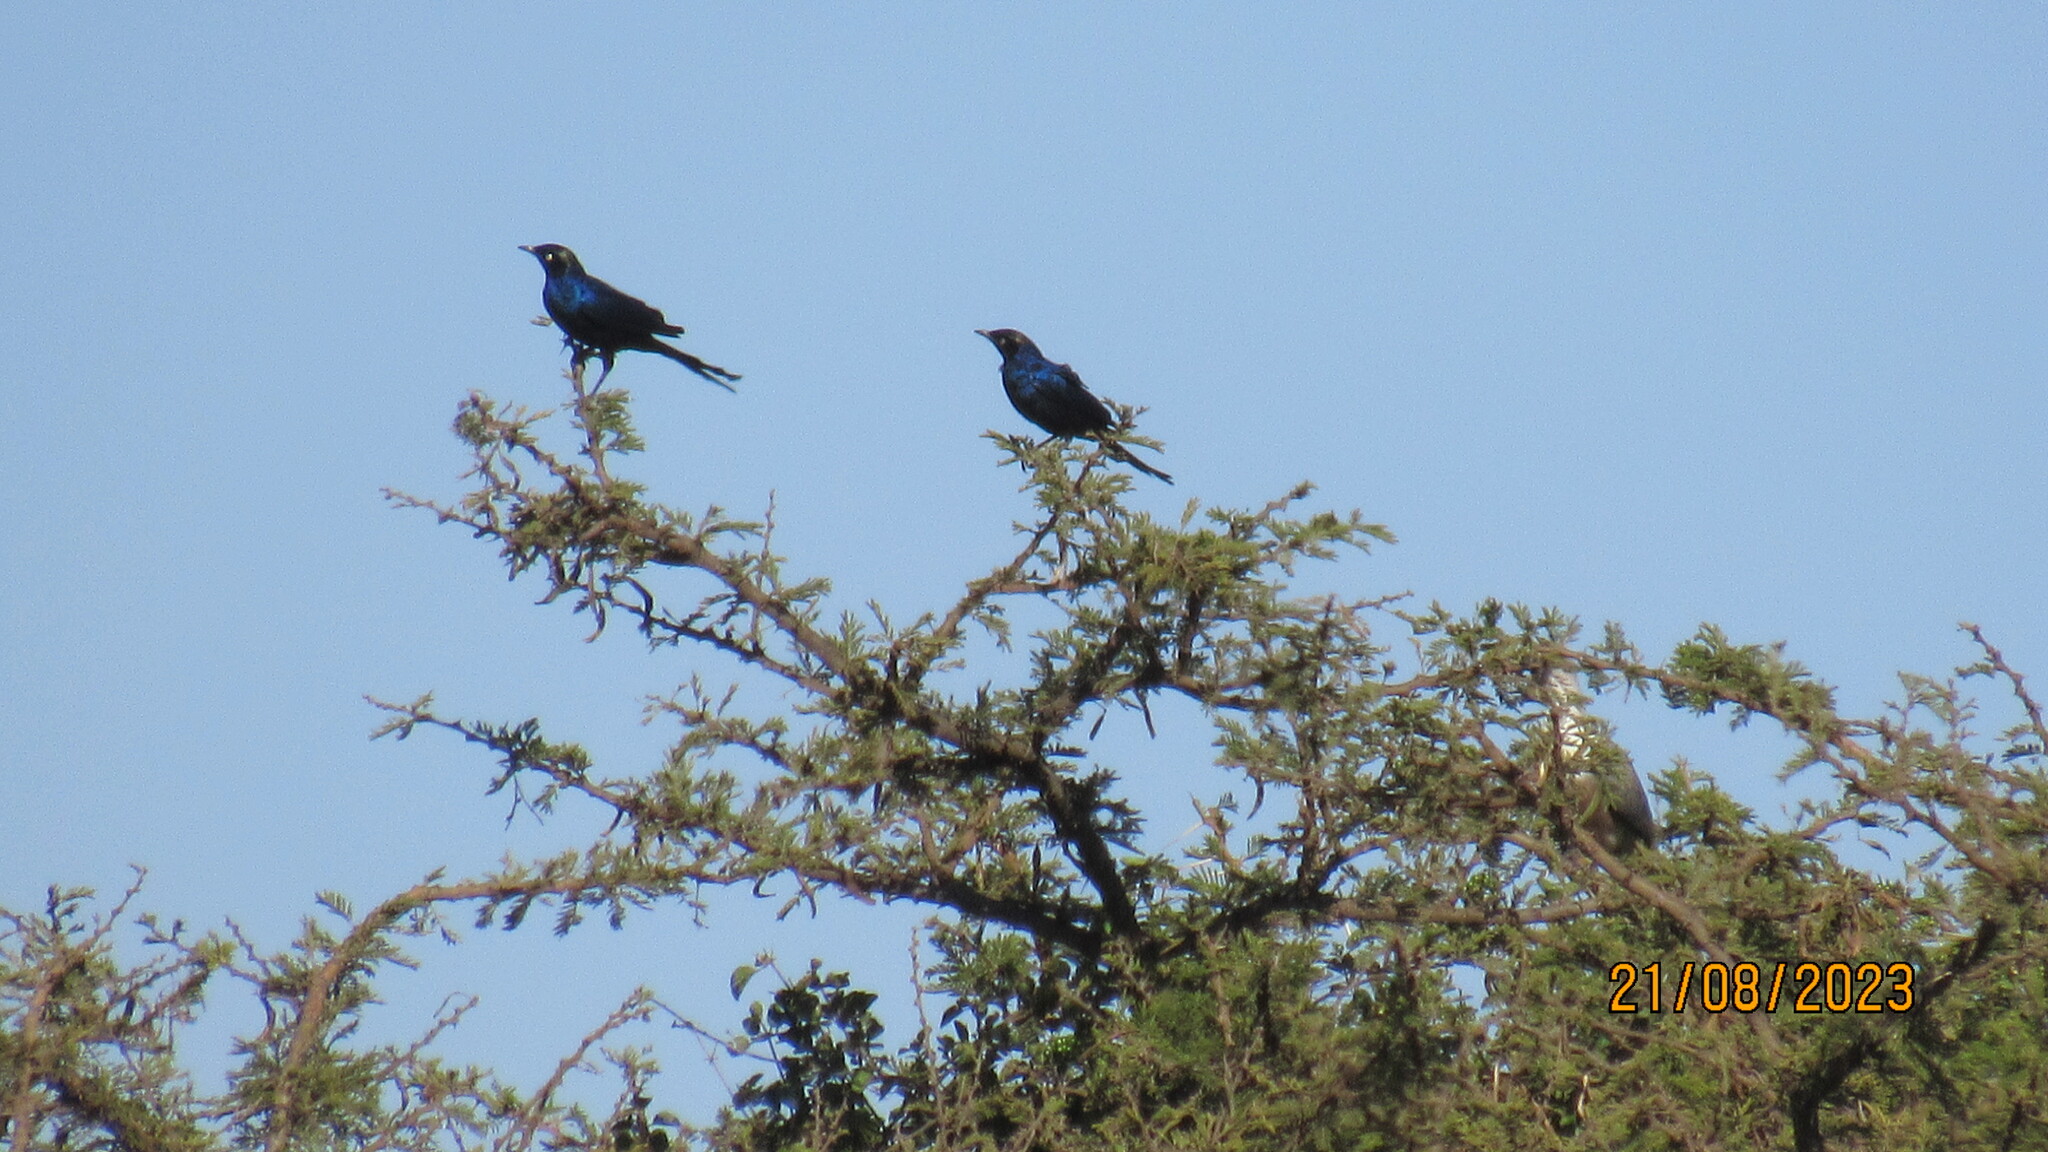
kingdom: Animalia
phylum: Chordata
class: Aves
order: Passeriformes
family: Sturnidae
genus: Lamprotornis
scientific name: Lamprotornis purpuroptera
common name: Rüppell's starling
